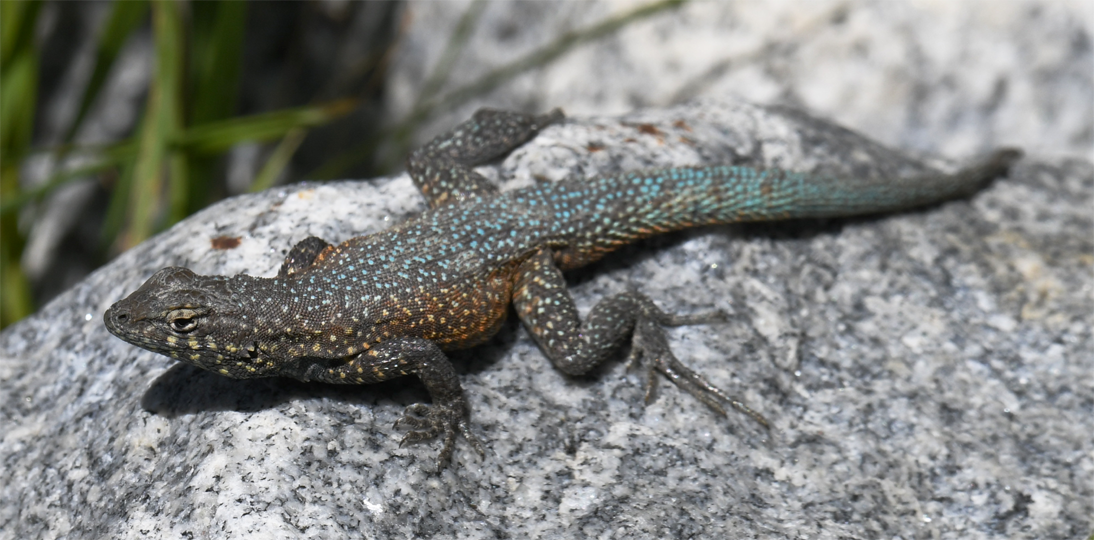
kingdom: Animalia
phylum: Chordata
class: Squamata
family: Phrynosomatidae
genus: Uta
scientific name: Uta stansburiana
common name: Side-blotched lizard
